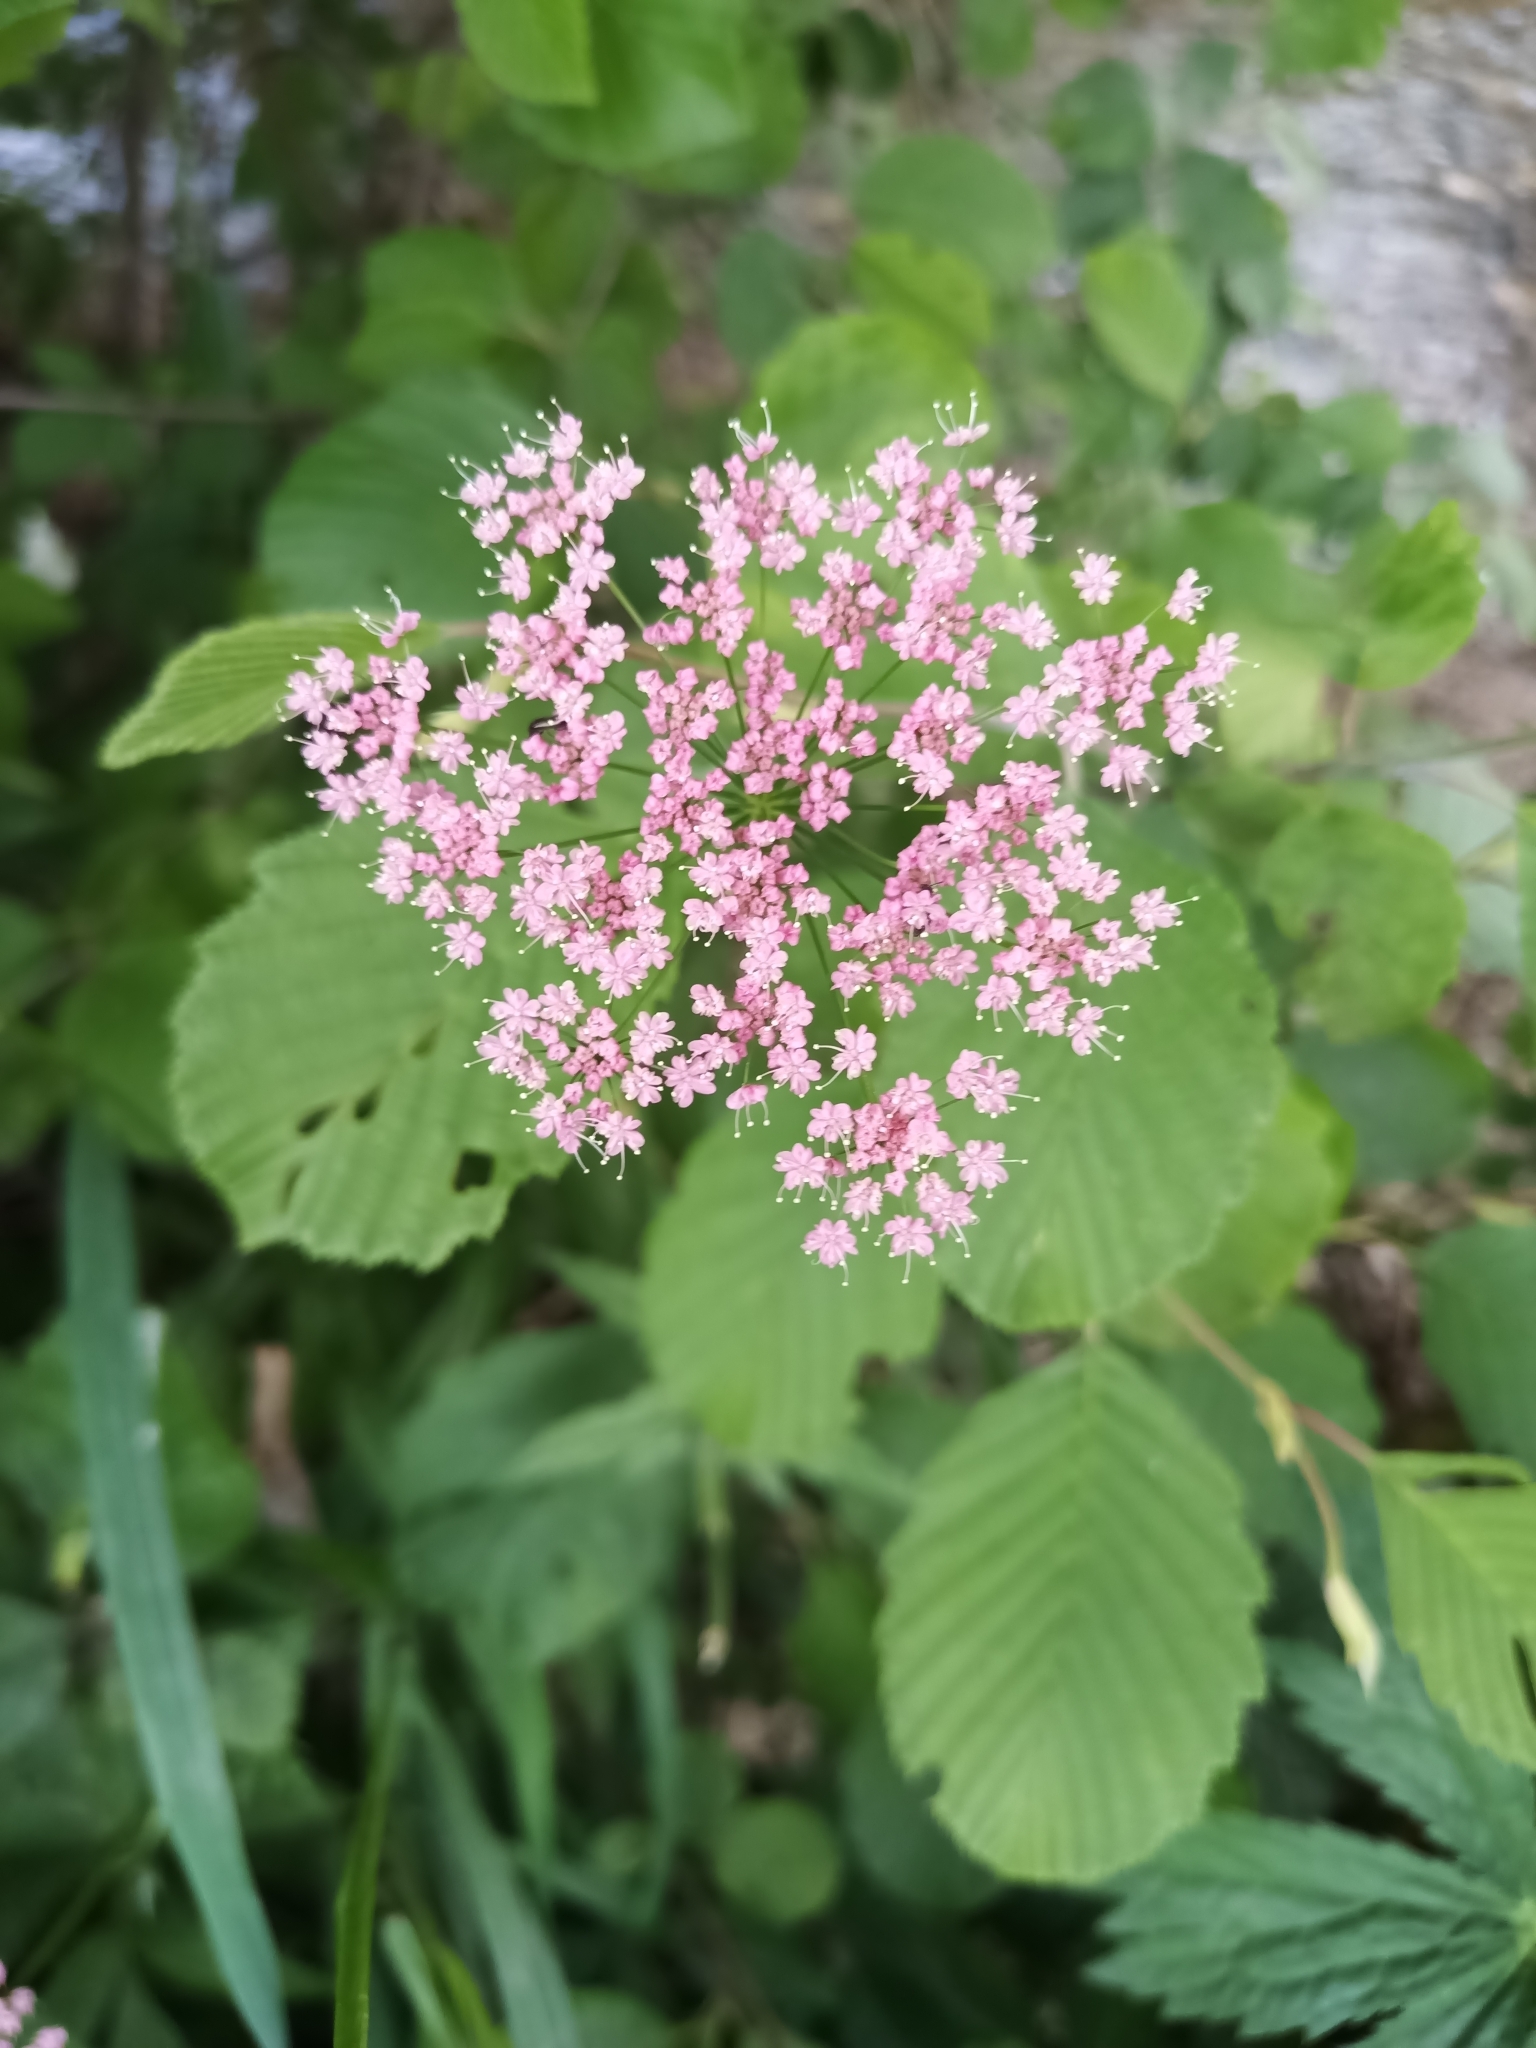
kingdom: Plantae
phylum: Tracheophyta
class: Magnoliopsida
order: Apiales
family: Apiaceae
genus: Pimpinella
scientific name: Pimpinella major
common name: Greater burnet-saxifrage
